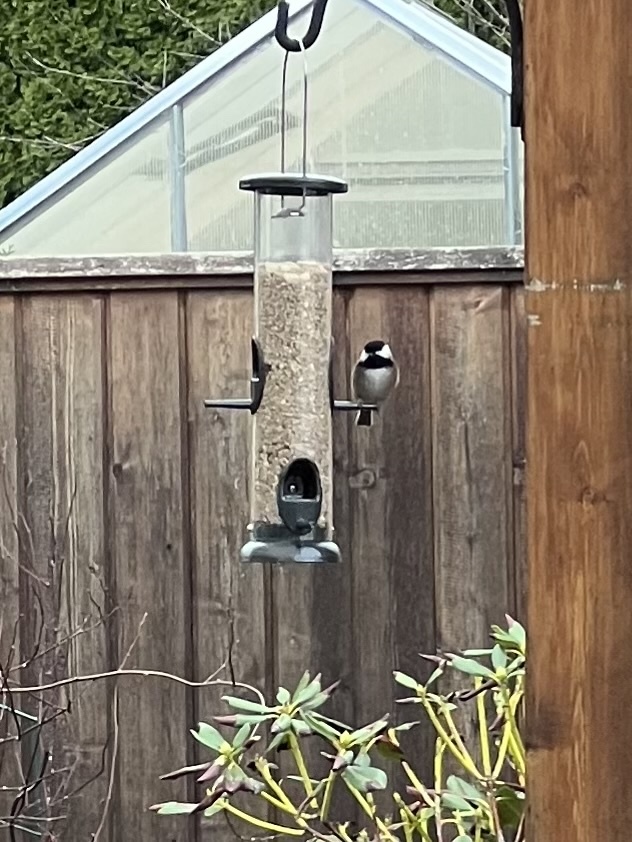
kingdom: Animalia
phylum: Chordata
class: Aves
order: Passeriformes
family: Paridae
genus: Poecile
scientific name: Poecile atricapillus
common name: Black-capped chickadee
